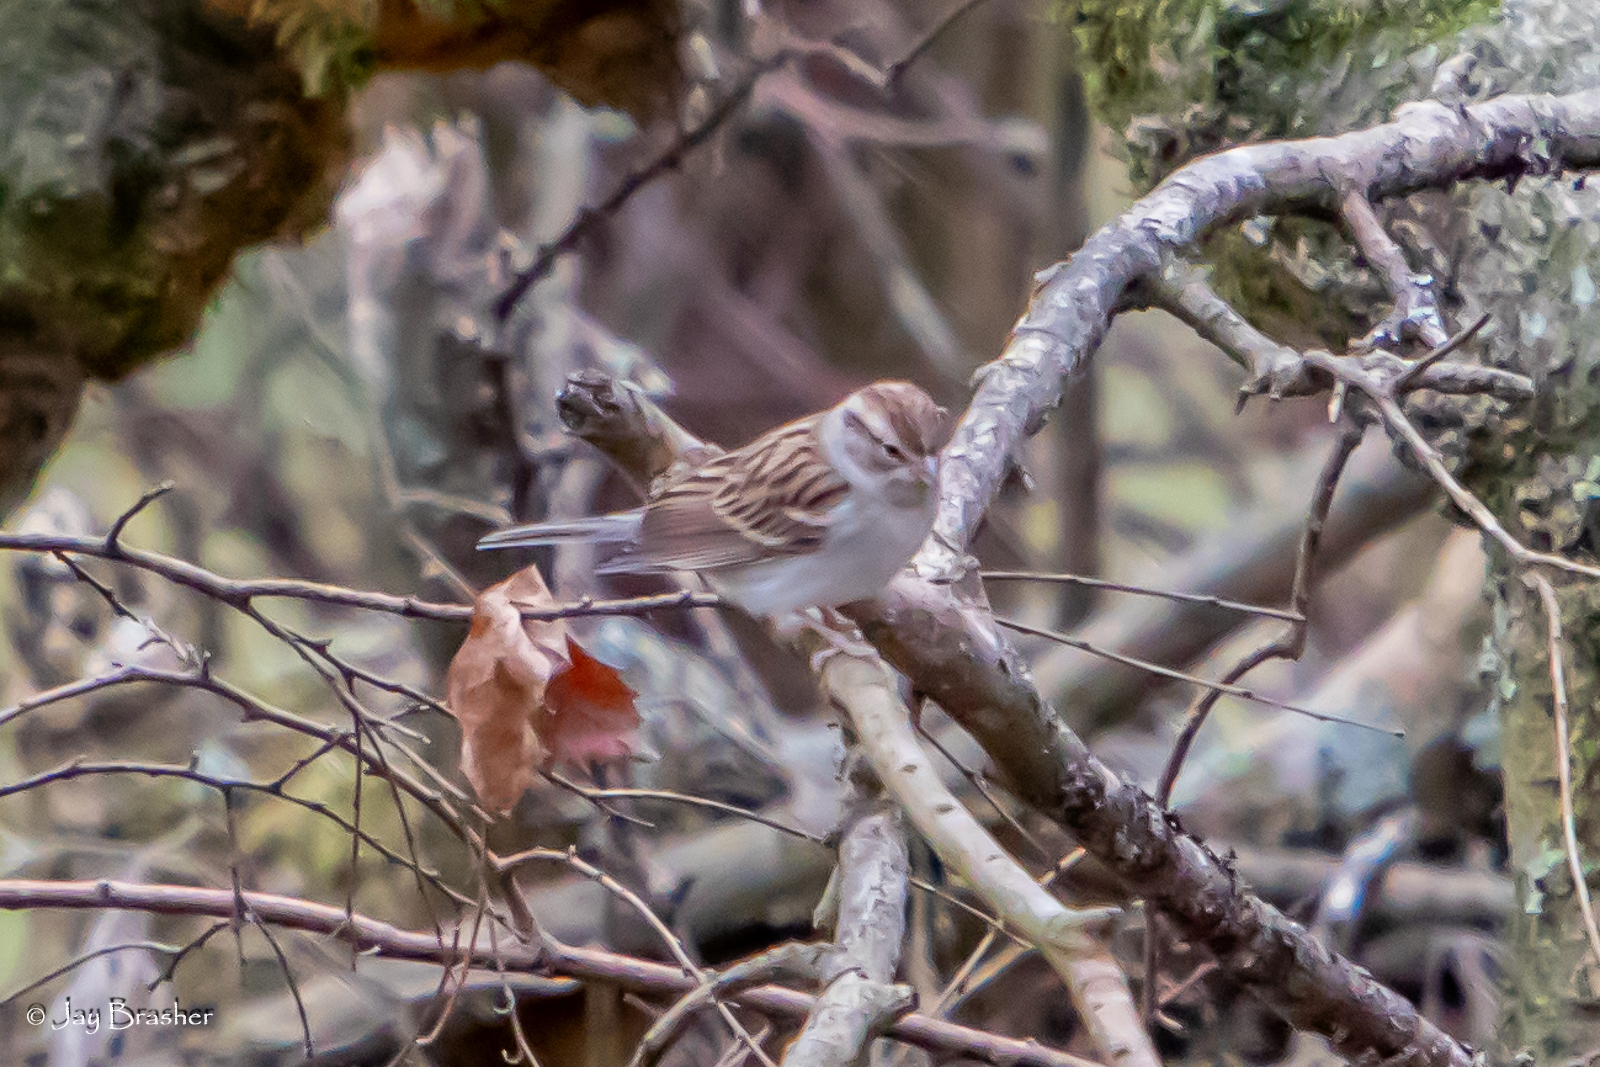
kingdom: Animalia
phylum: Chordata
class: Aves
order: Passeriformes
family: Passerellidae
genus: Spizella
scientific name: Spizella passerina
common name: Chipping sparrow
